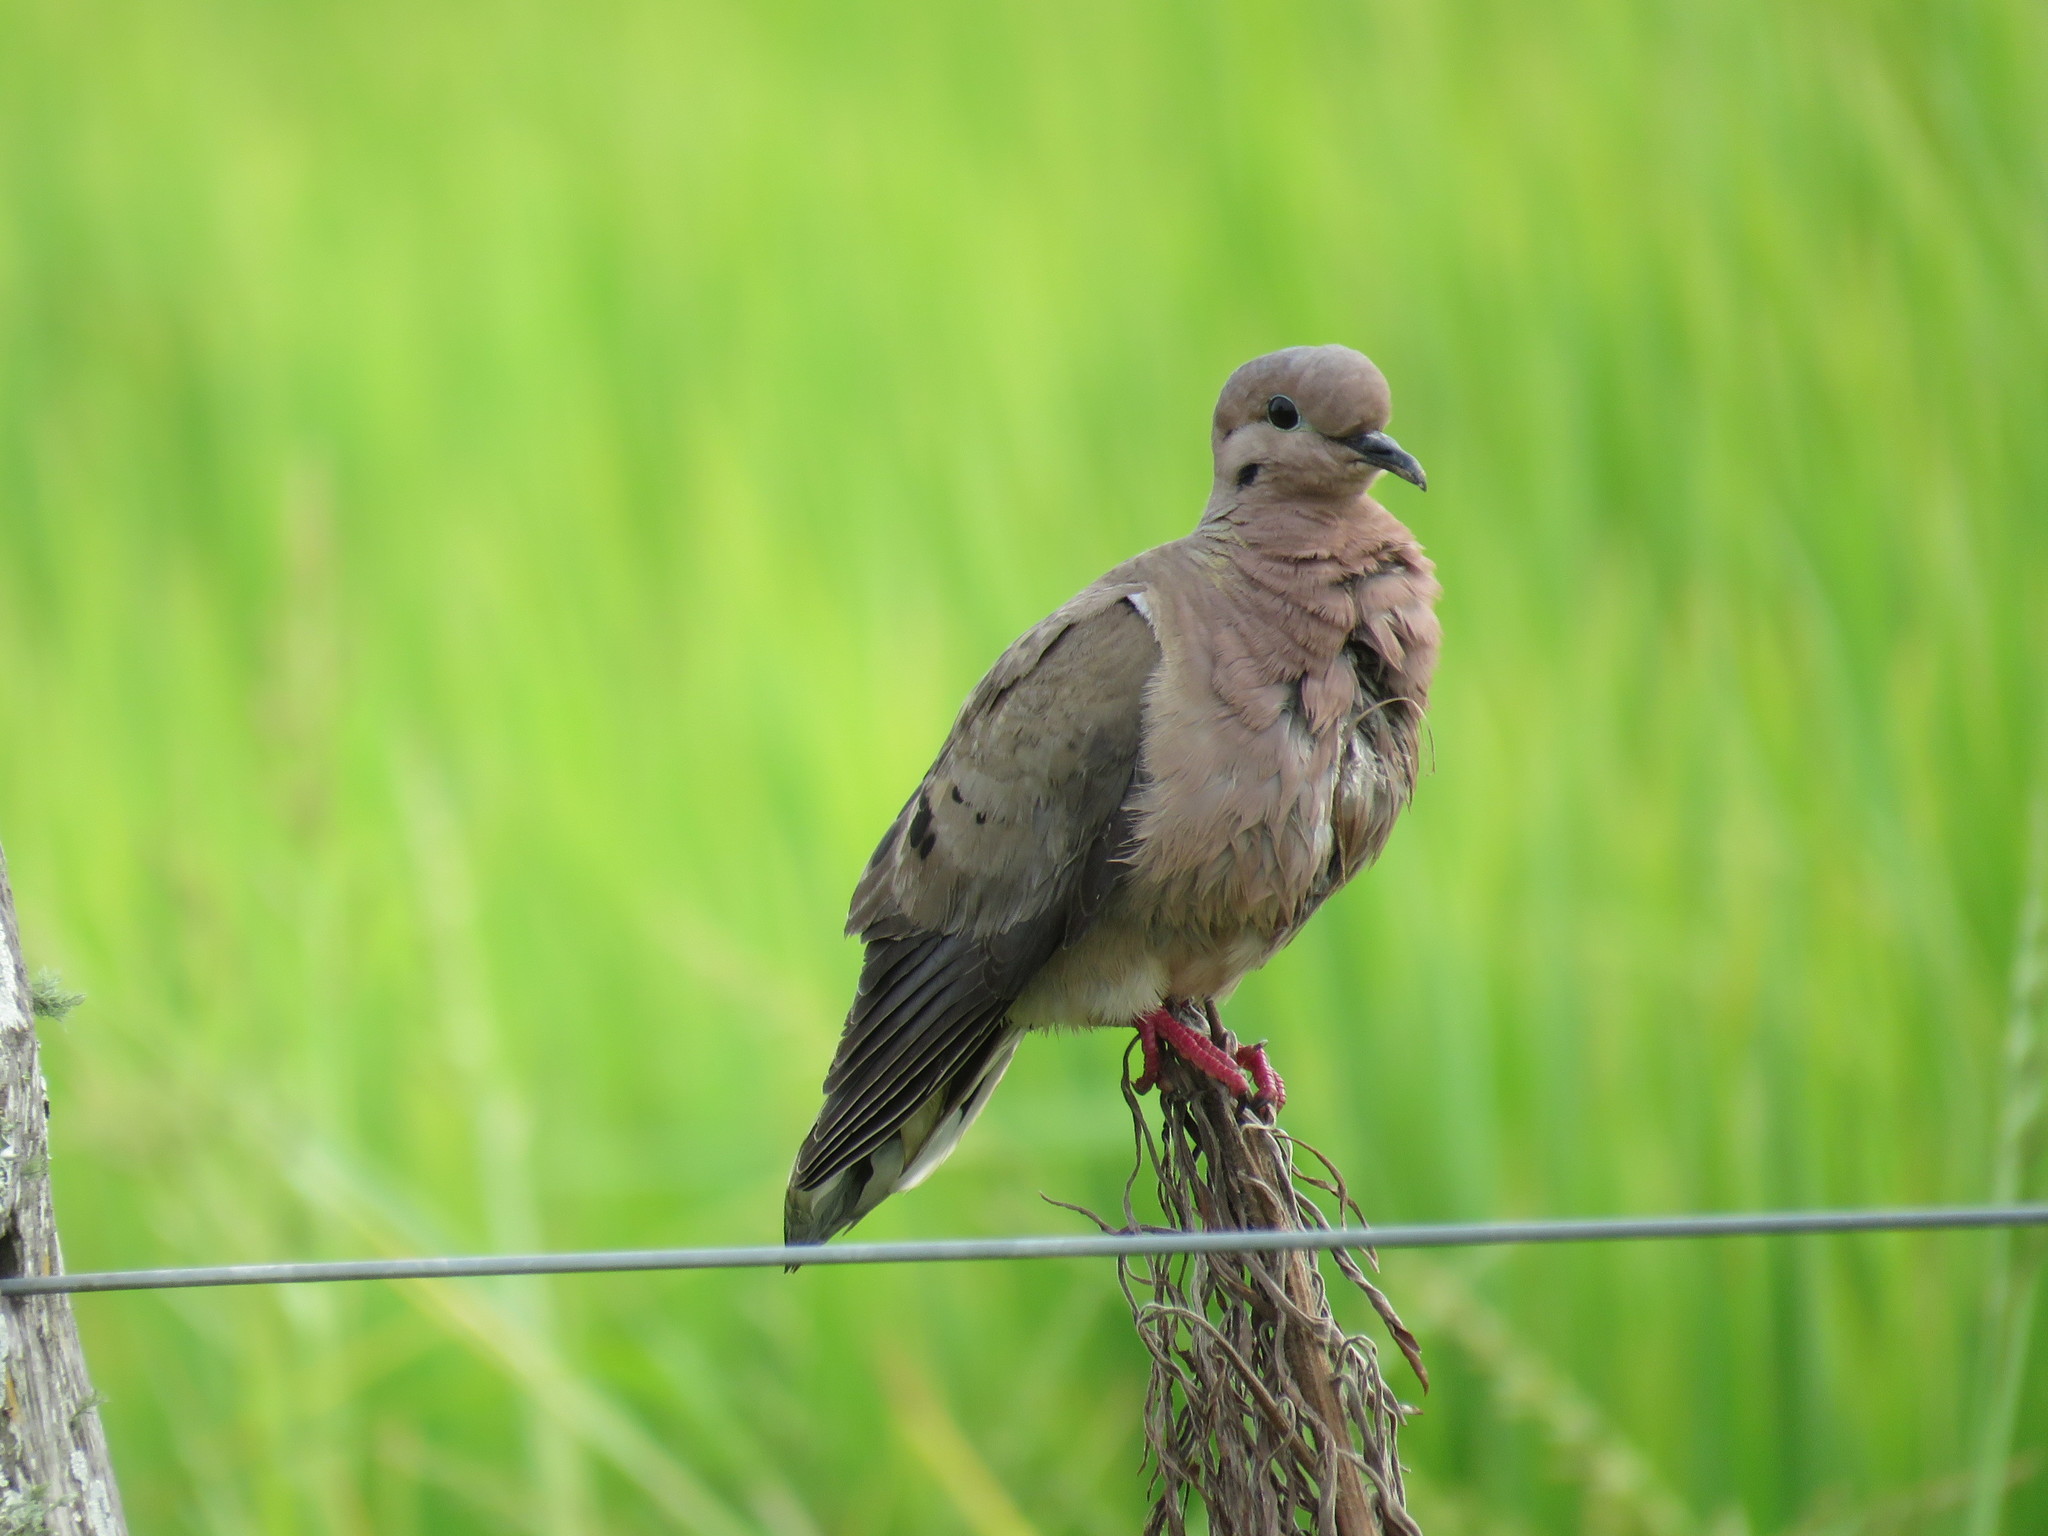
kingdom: Animalia
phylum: Chordata
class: Aves
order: Columbiformes
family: Columbidae
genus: Zenaida
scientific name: Zenaida auriculata
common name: Eared dove
